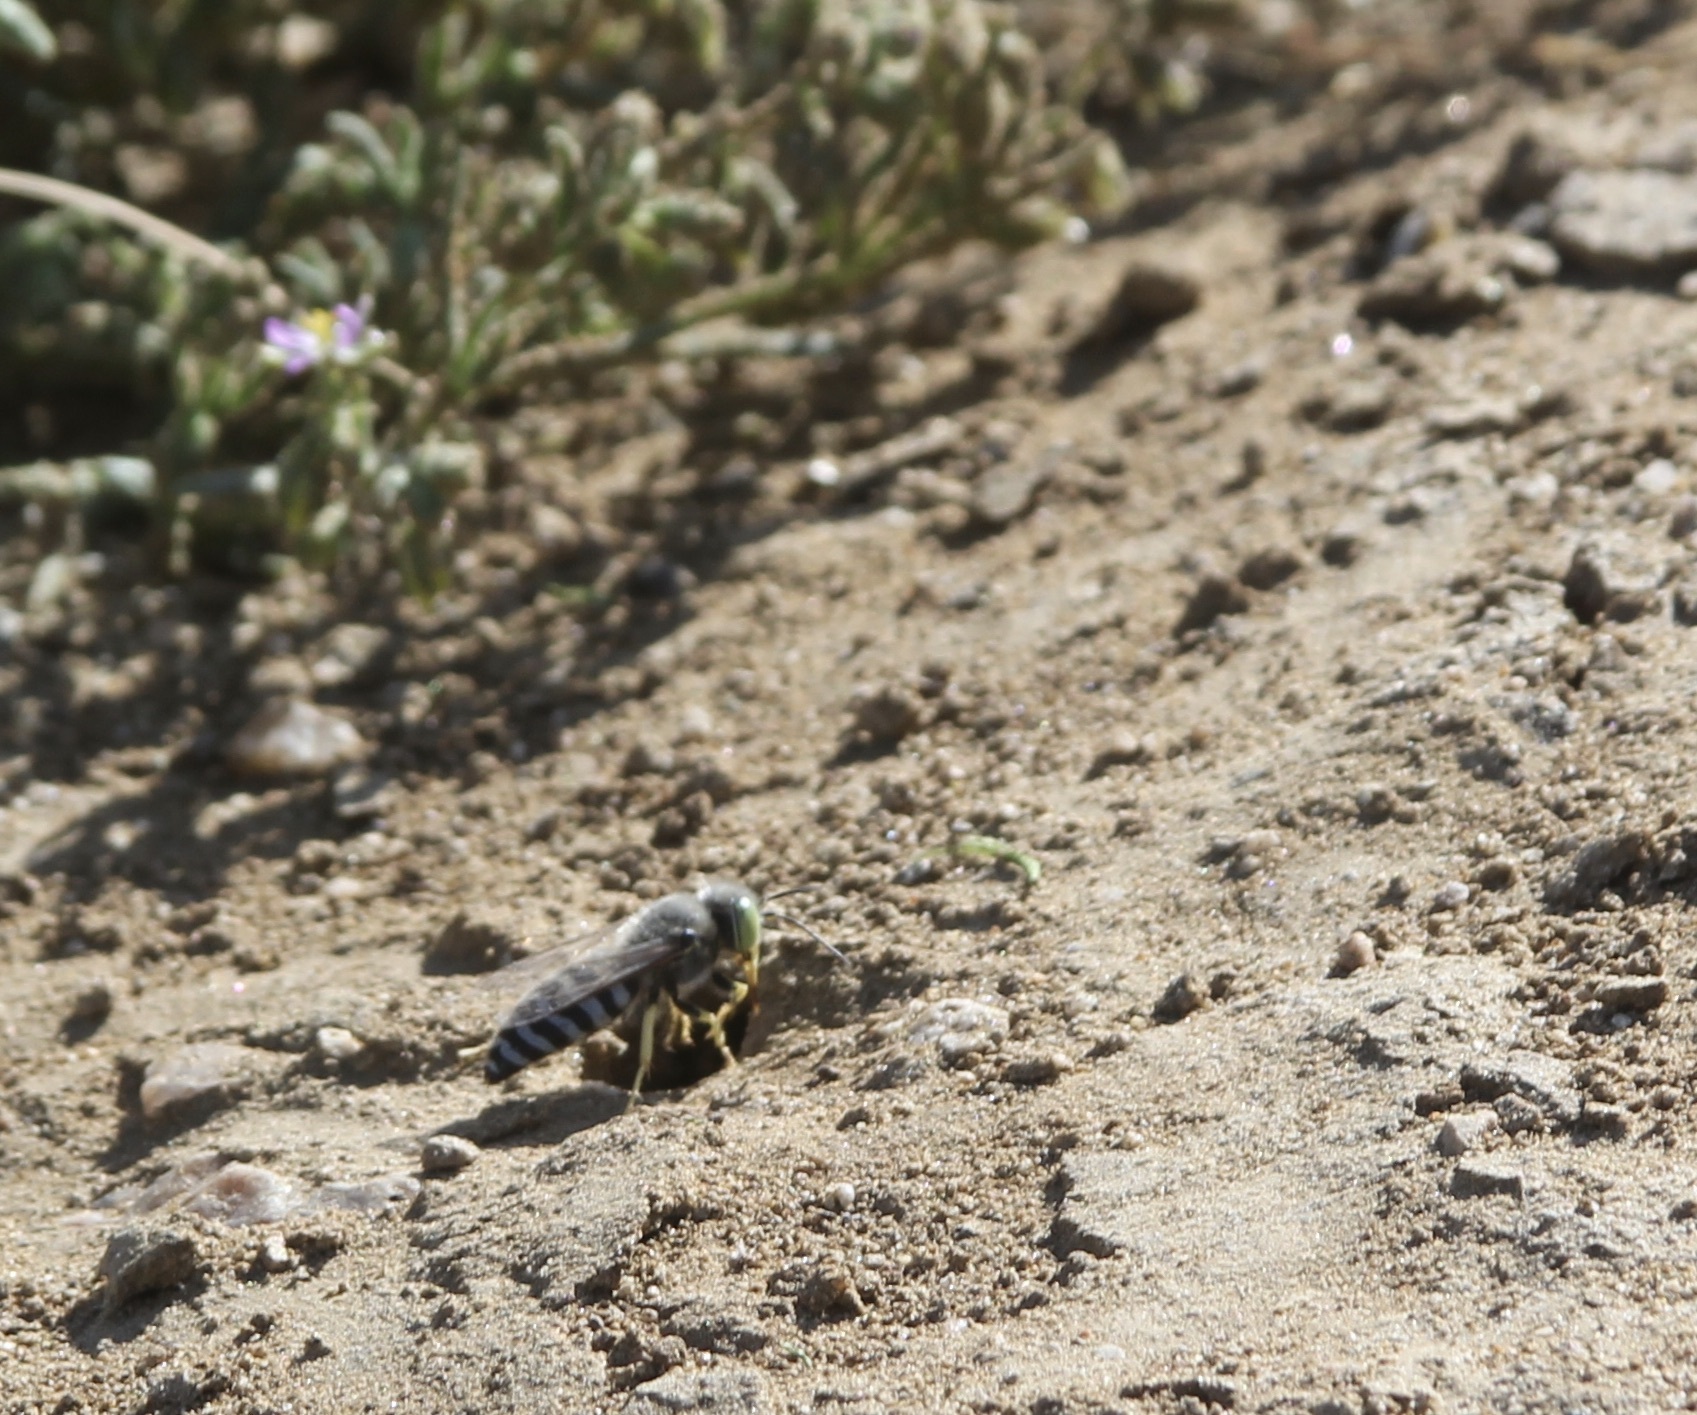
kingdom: Animalia
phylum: Arthropoda
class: Insecta
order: Hymenoptera
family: Crabronidae
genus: Bembix
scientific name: Bembix americana
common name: American sand wasp
